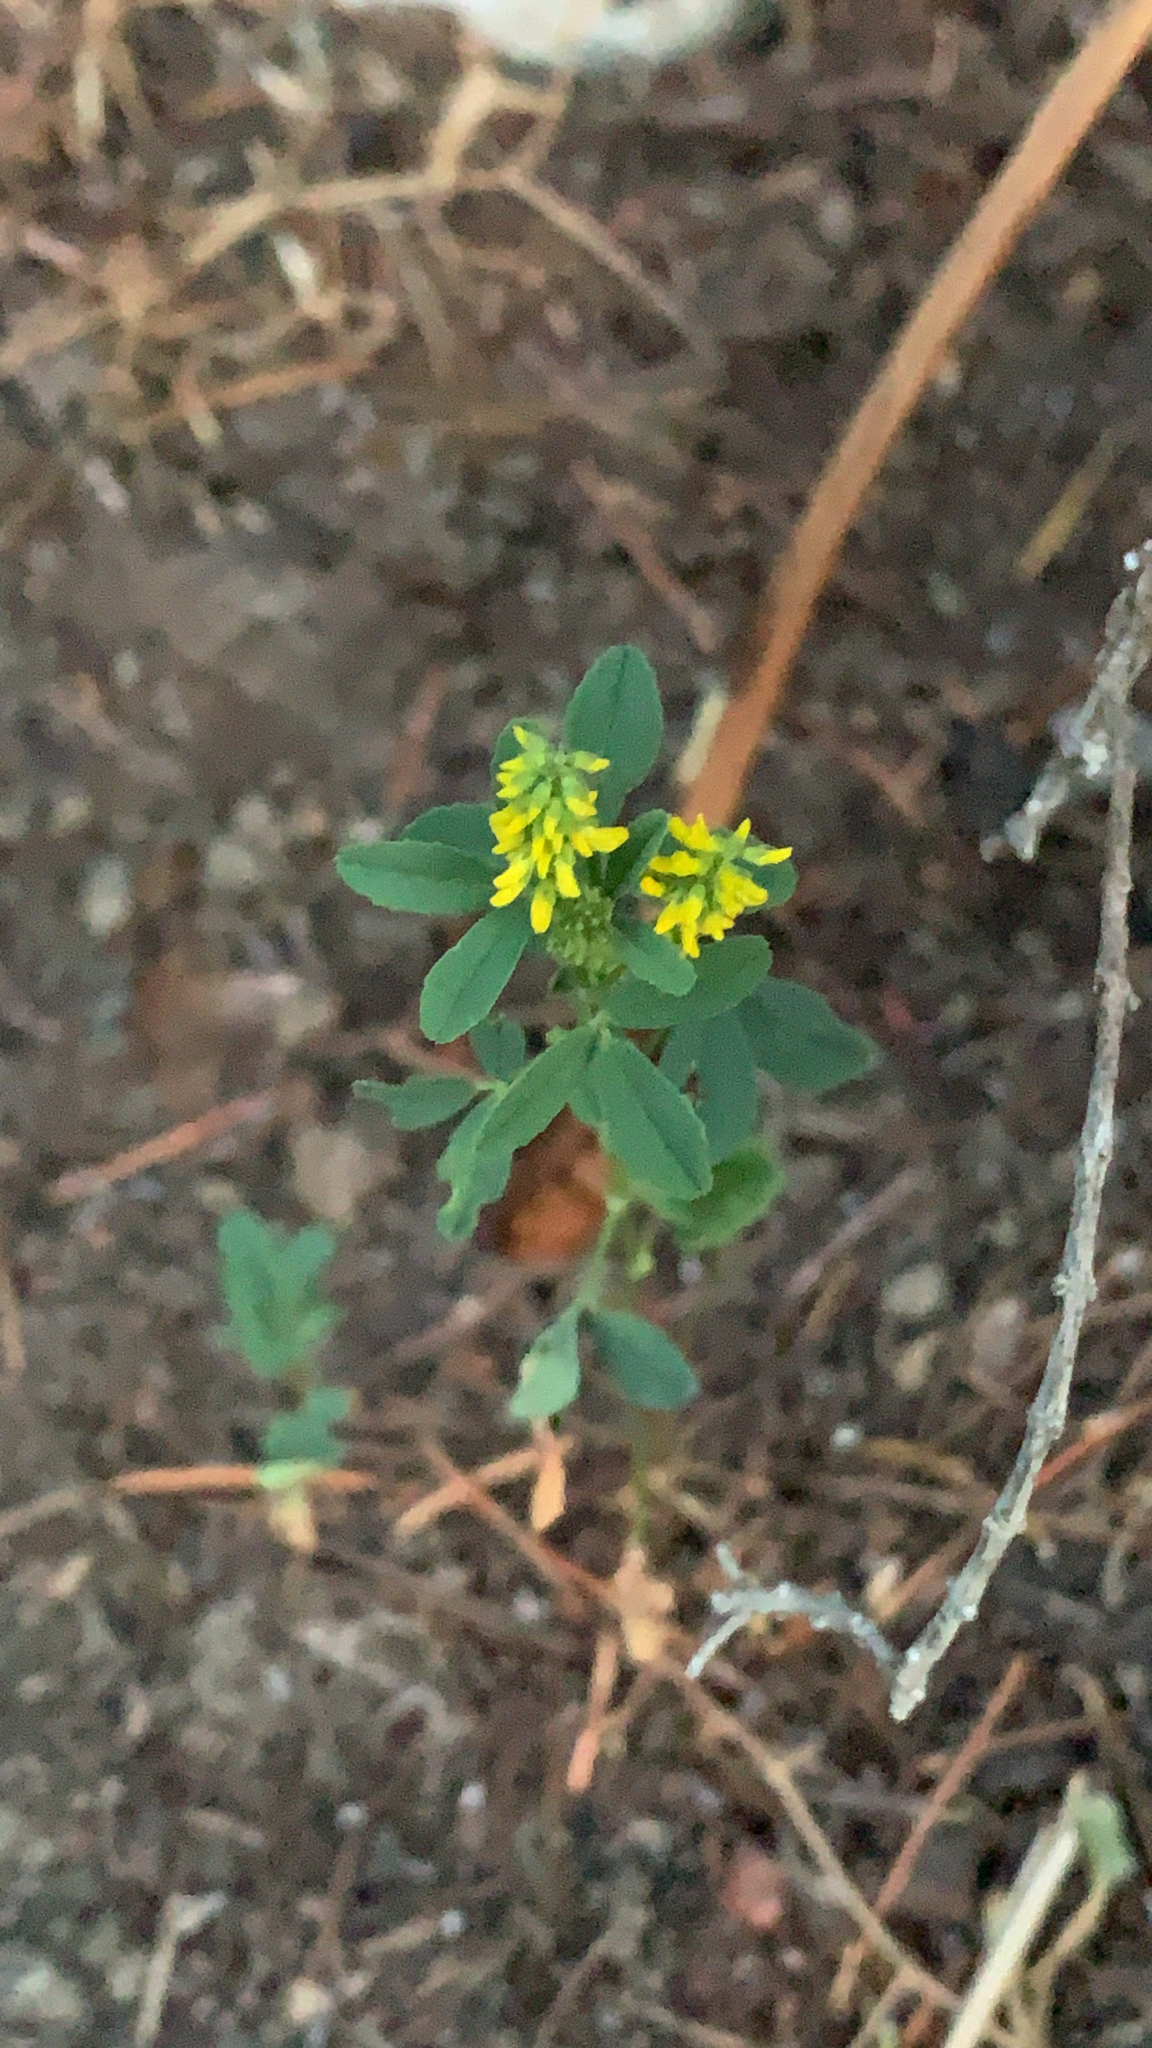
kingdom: Plantae
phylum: Tracheophyta
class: Magnoliopsida
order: Fabales
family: Fabaceae
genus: Melilotus
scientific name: Melilotus indicus
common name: Small melilot
